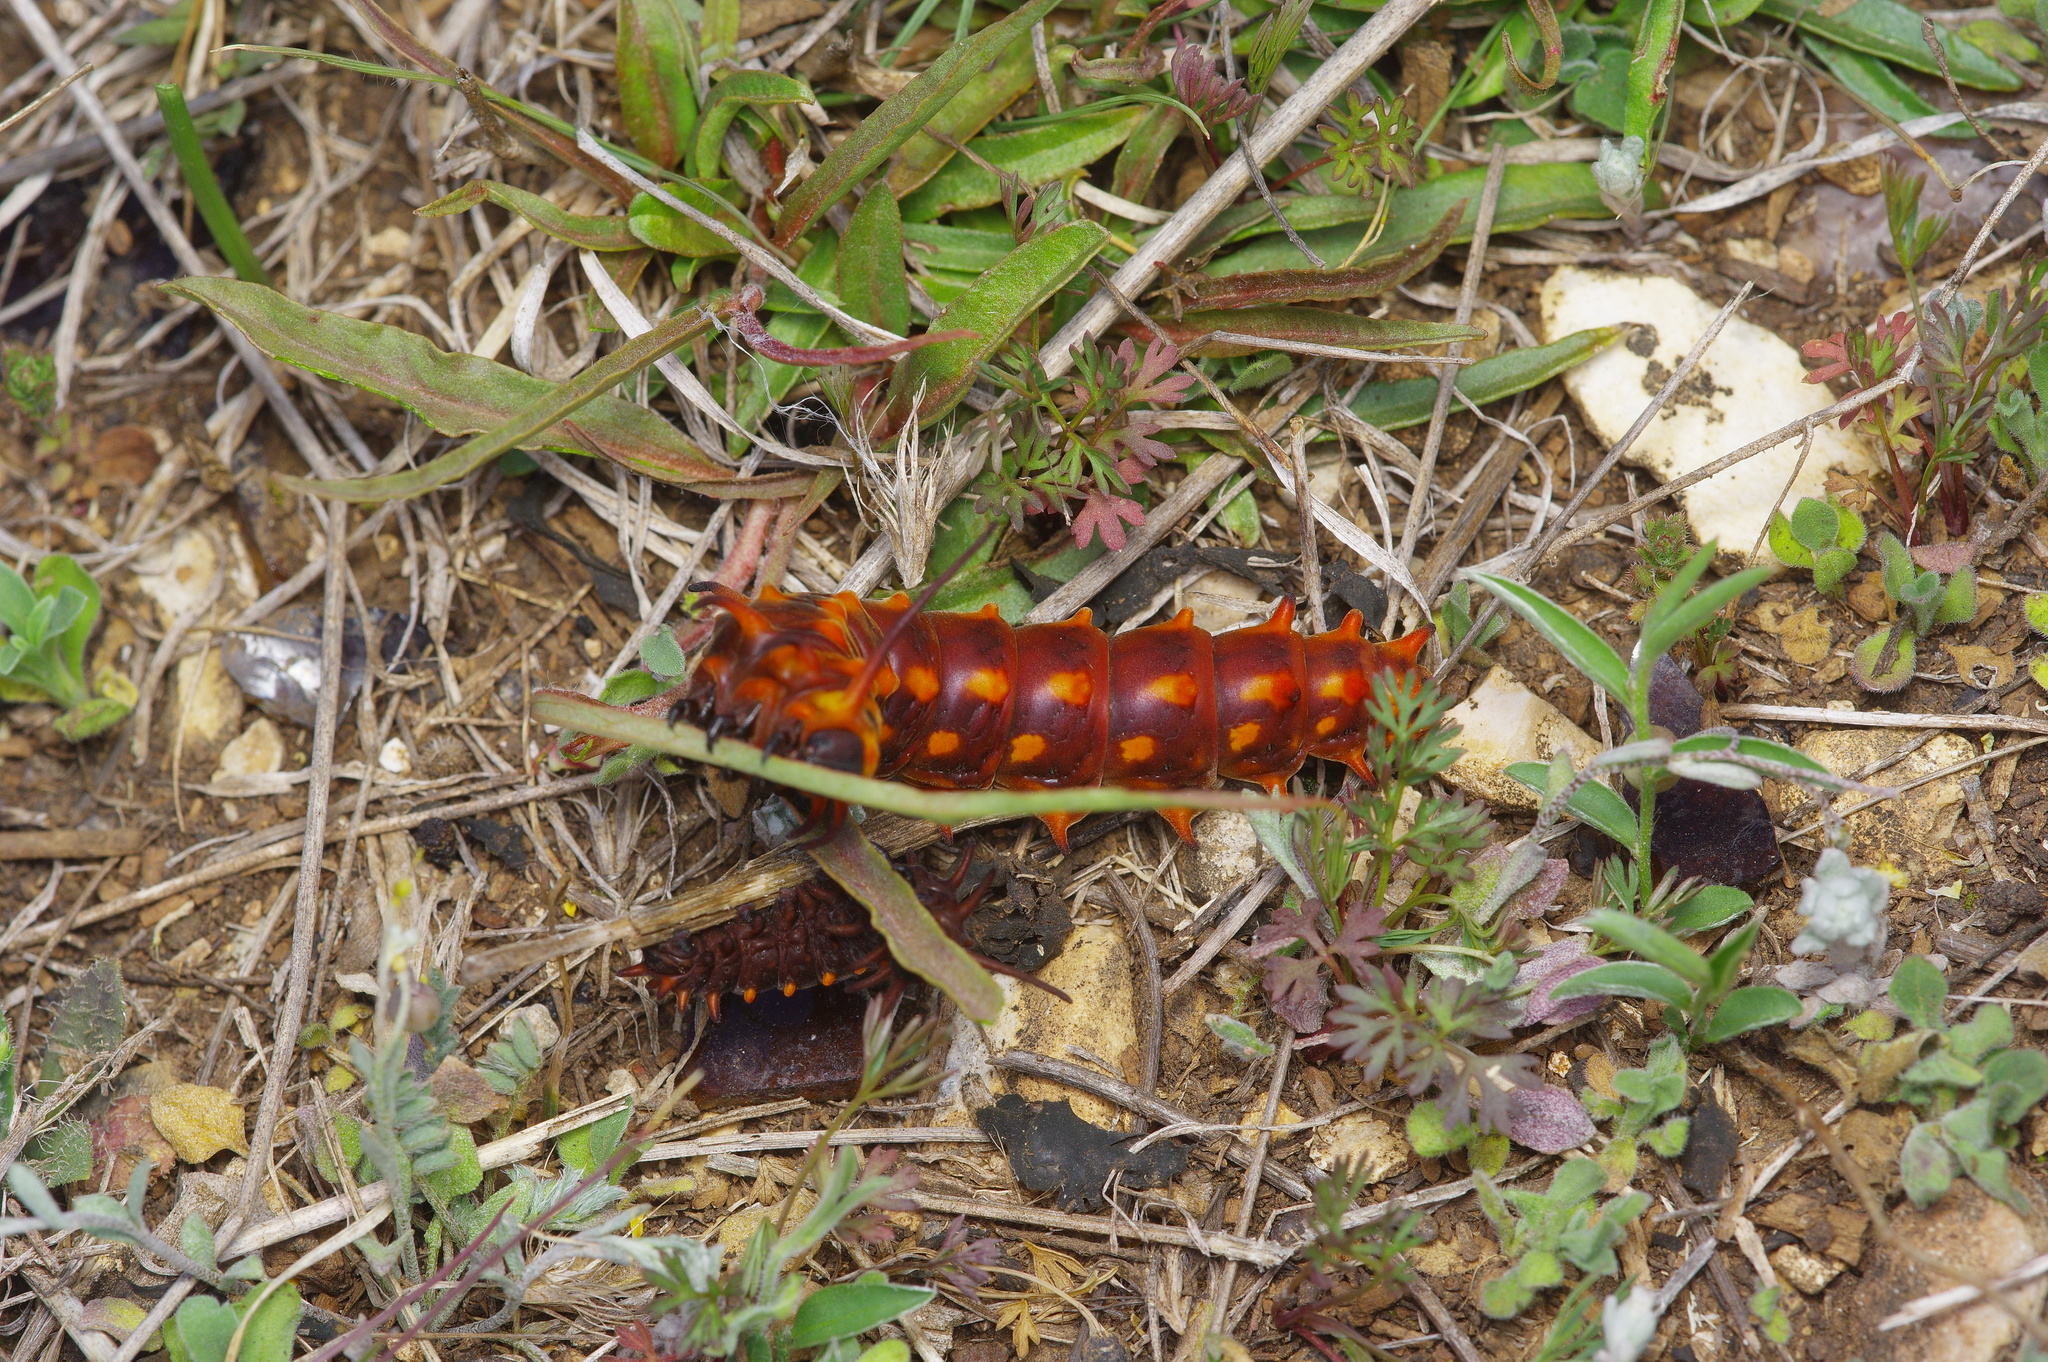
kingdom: Animalia
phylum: Arthropoda
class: Insecta
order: Lepidoptera
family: Papilionidae
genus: Battus
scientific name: Battus philenor
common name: Pipevine swallowtail
